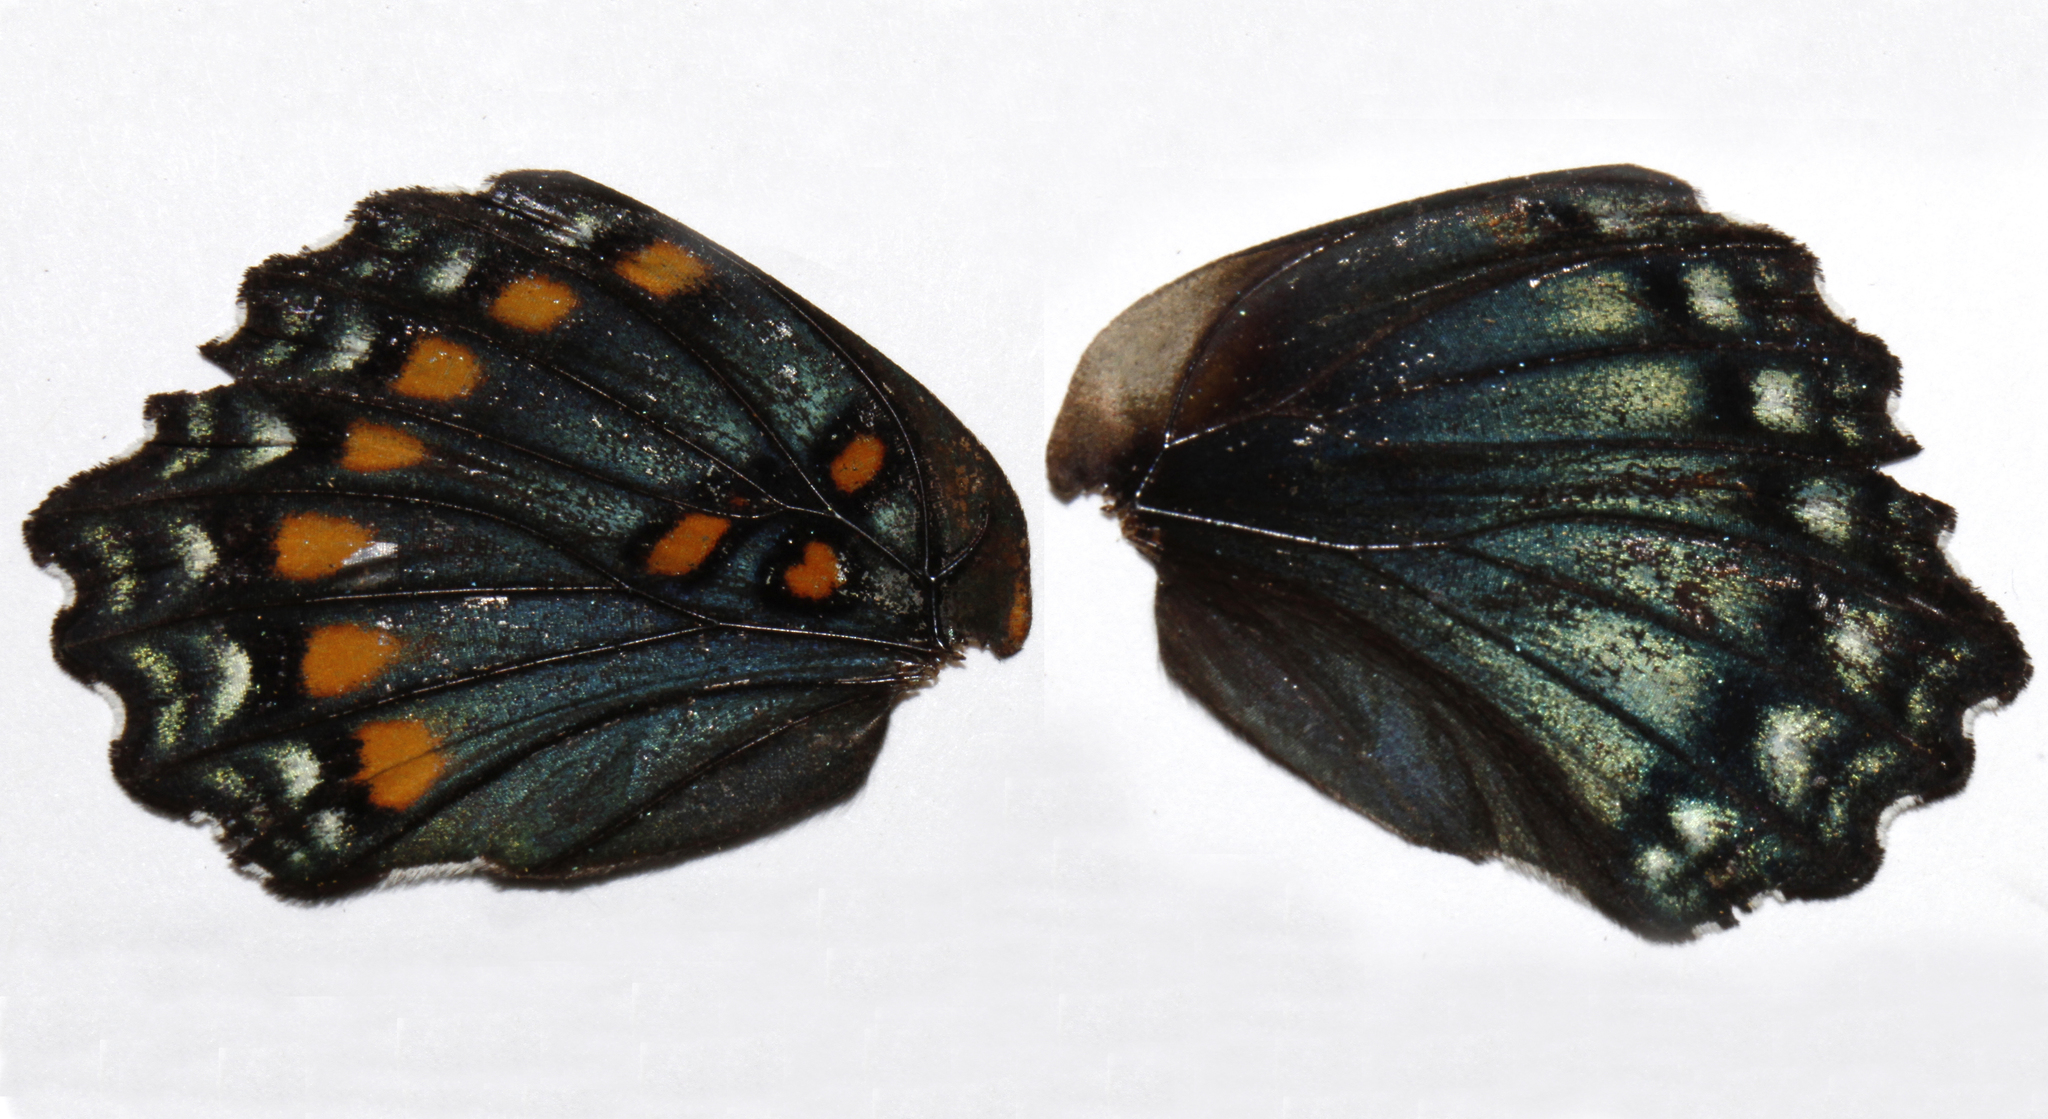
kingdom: Animalia
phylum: Arthropoda
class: Insecta
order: Lepidoptera
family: Nymphalidae
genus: Limenitis
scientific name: Limenitis arthemis
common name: Red-spotted admiral
